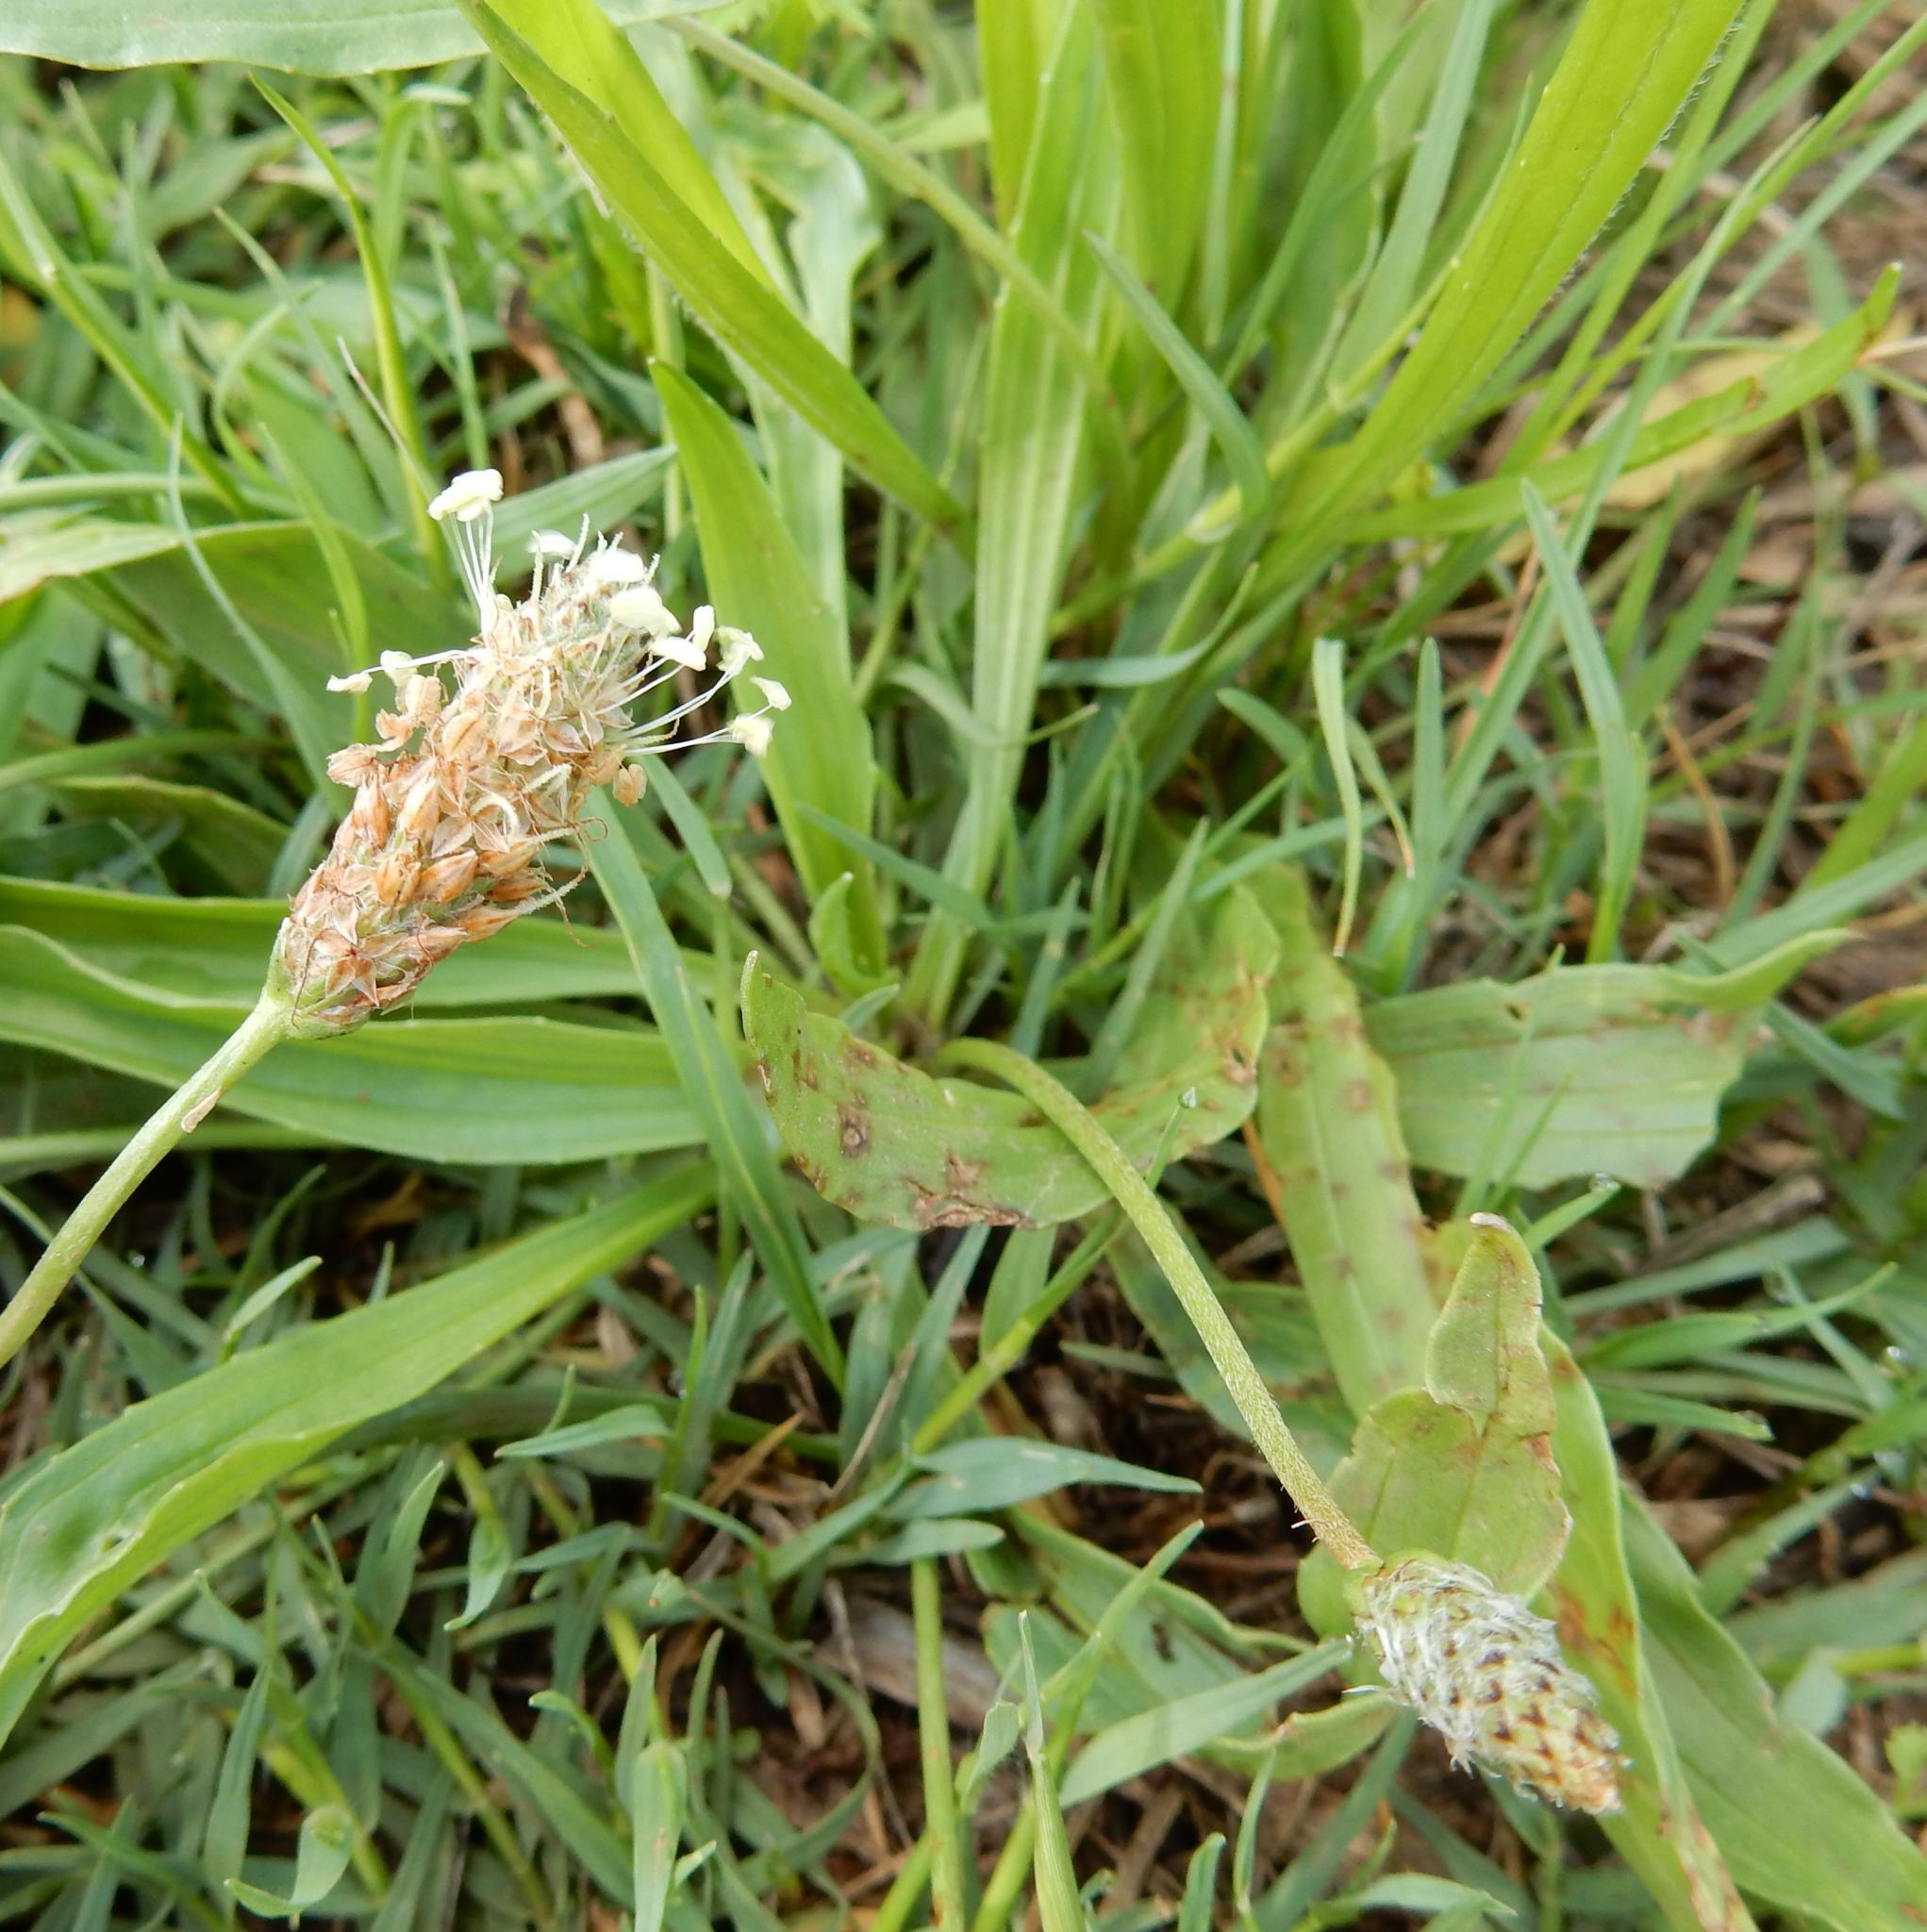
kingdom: Plantae
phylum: Tracheophyta
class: Magnoliopsida
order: Lamiales
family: Plantaginaceae
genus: Plantago
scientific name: Plantago lanceolata
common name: Ribwort plantain
